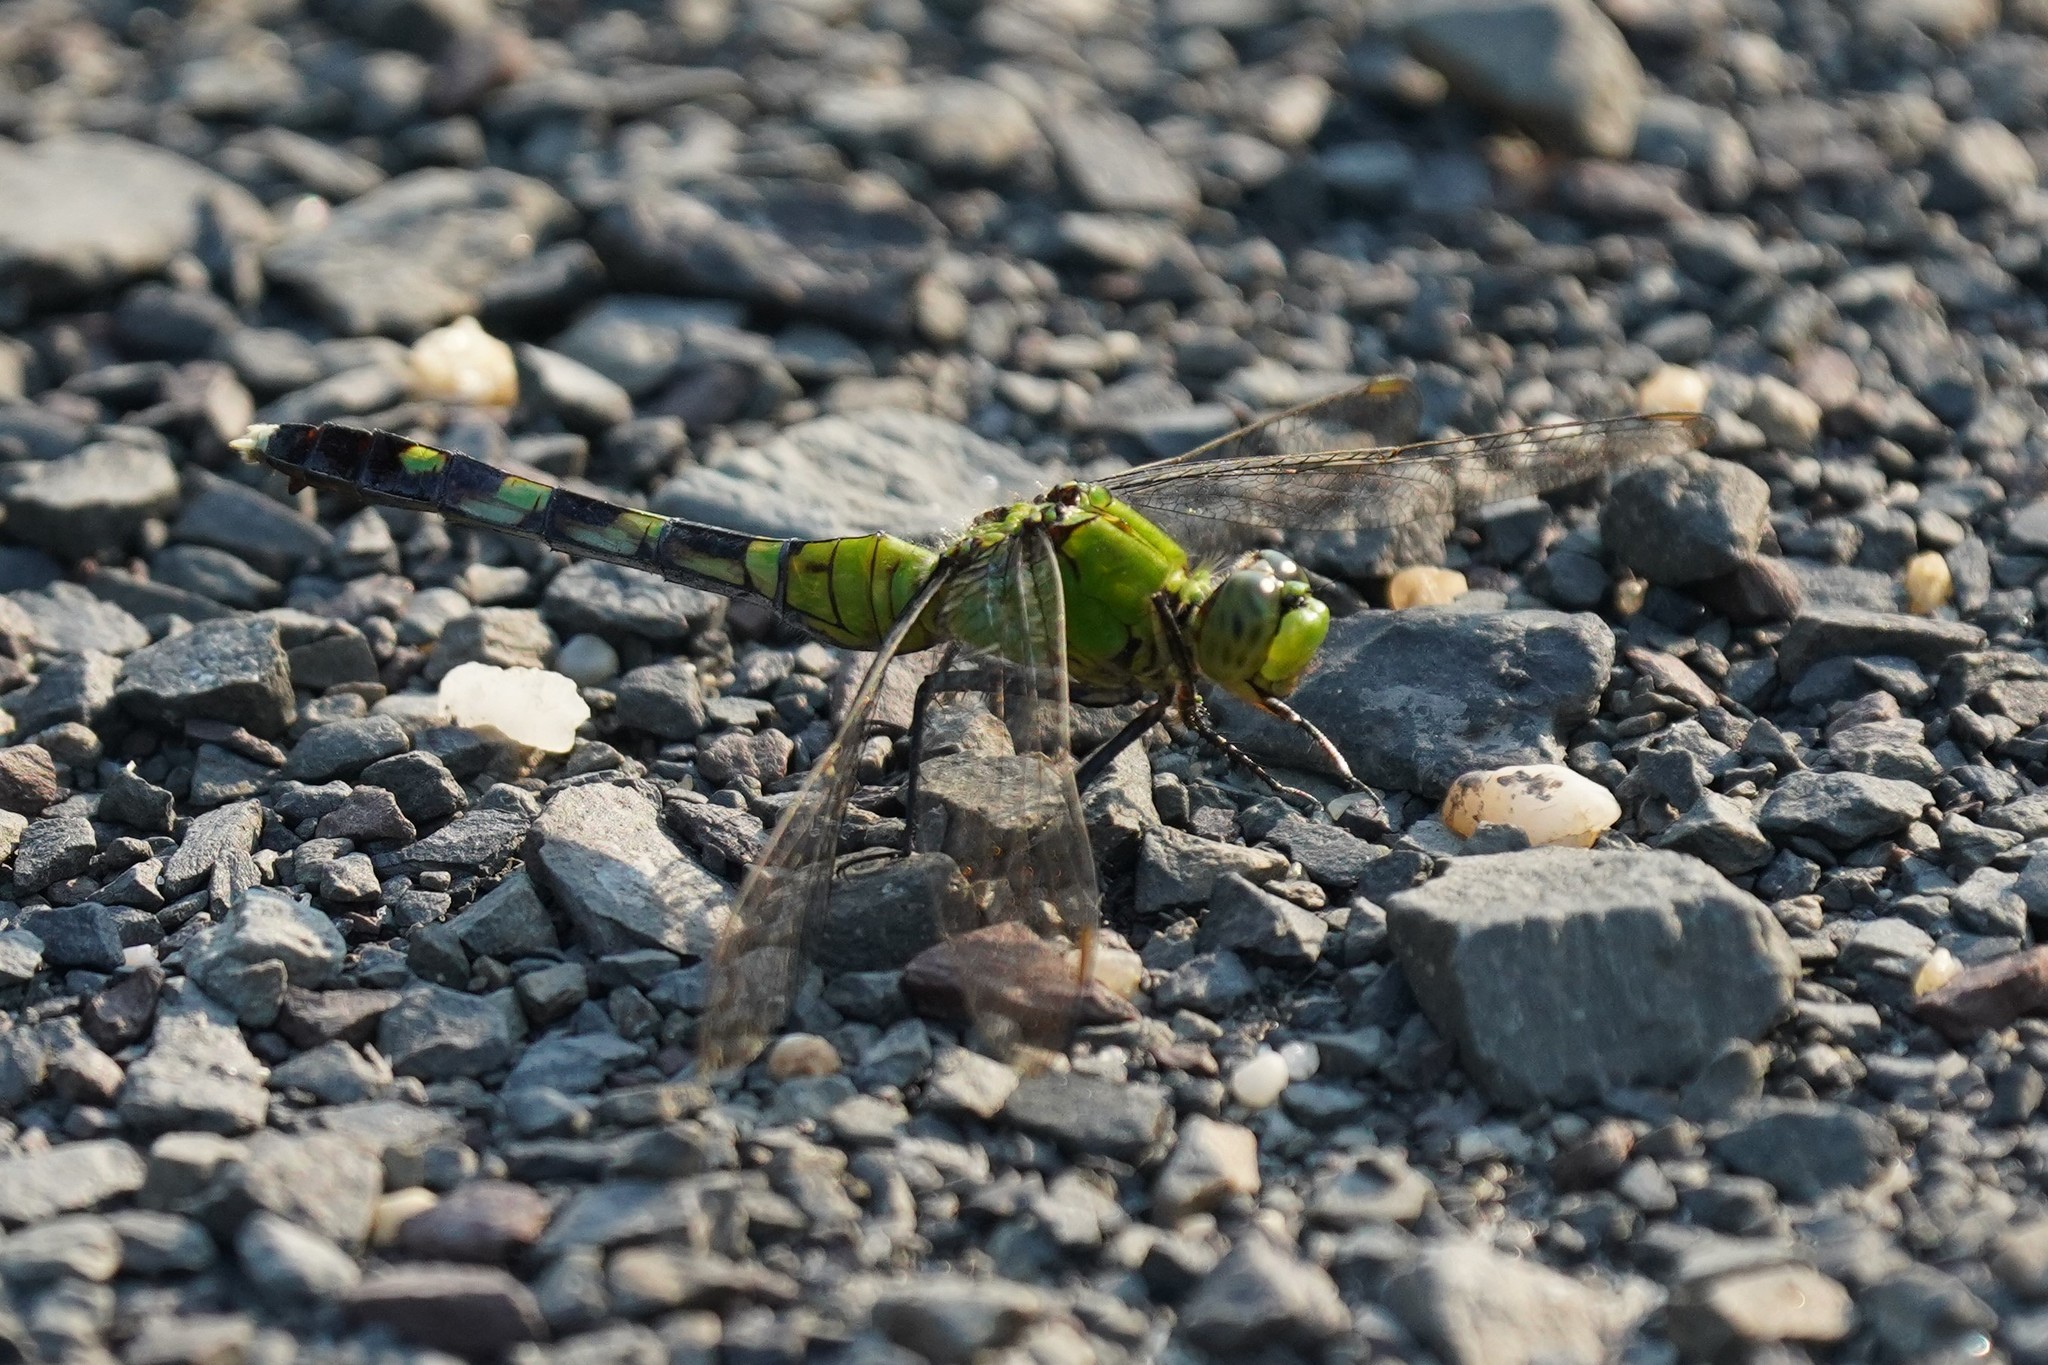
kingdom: Animalia
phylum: Arthropoda
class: Insecta
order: Odonata
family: Libellulidae
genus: Erythemis
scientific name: Erythemis simplicicollis
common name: Eastern pondhawk
